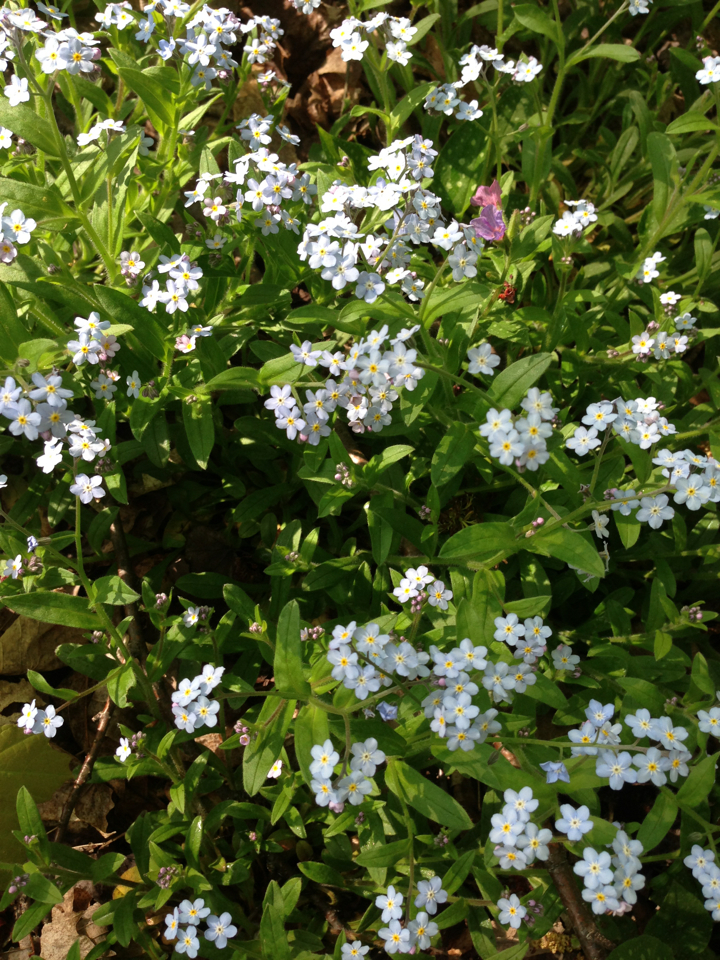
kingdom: Plantae
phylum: Tracheophyta
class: Magnoliopsida
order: Boraginales
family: Boraginaceae
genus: Myosotis
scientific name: Myosotis sylvatica
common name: Wood forget-me-not
